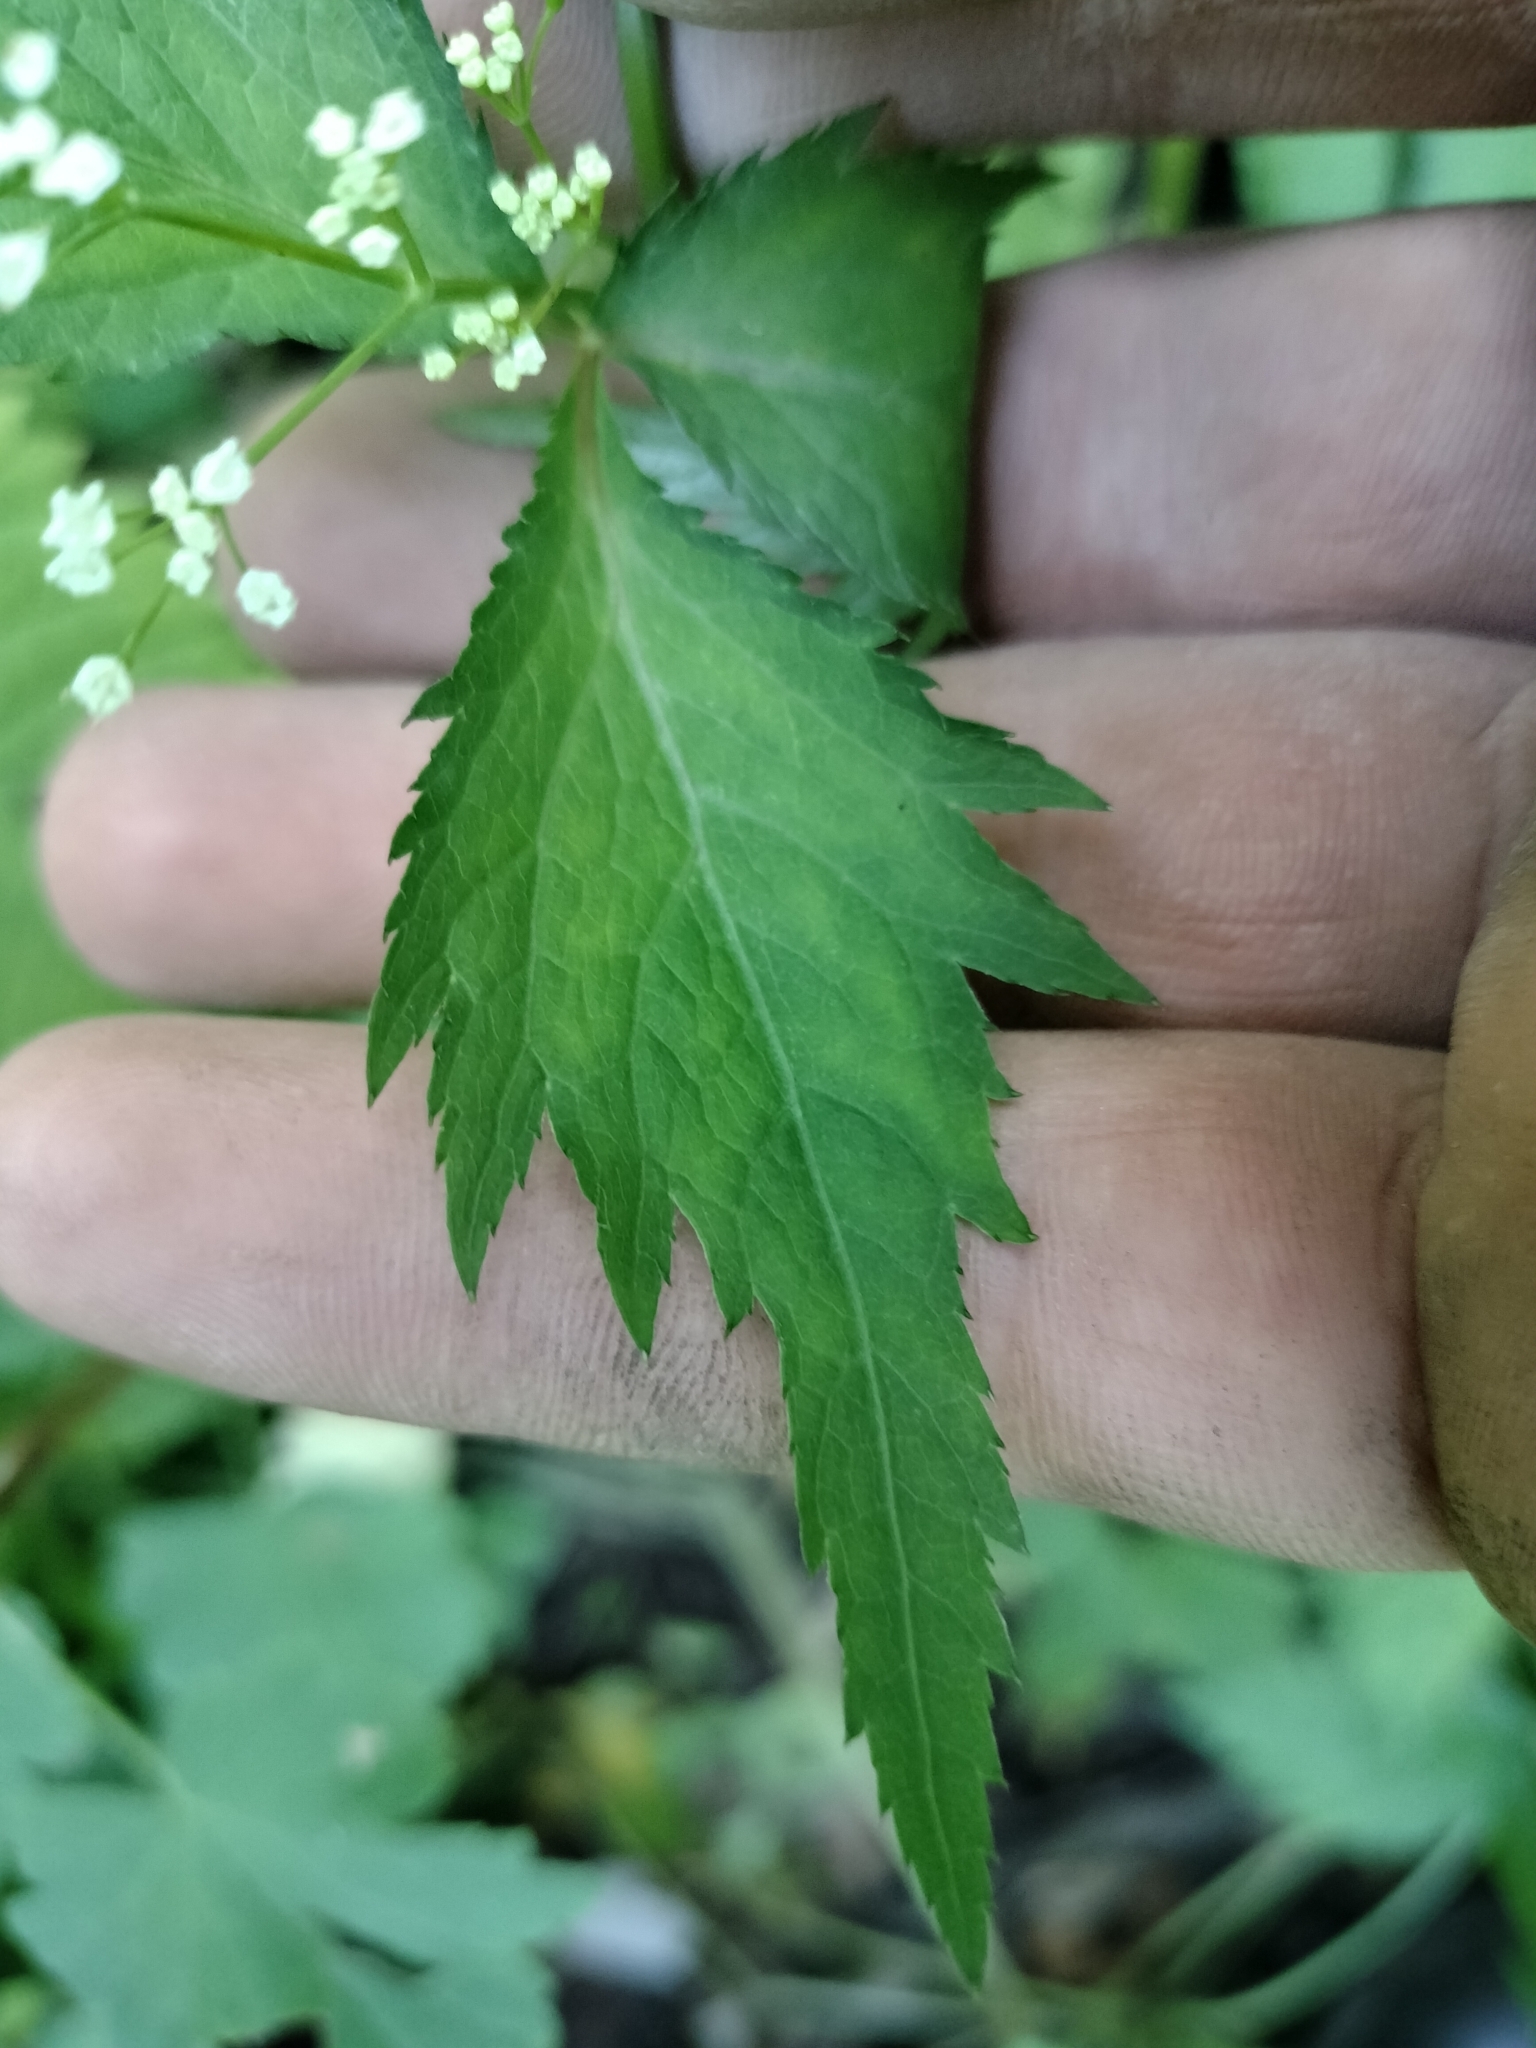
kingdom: Plantae
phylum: Tracheophyta
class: Magnoliopsida
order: Apiales
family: Apiaceae
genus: Cryptotaenia
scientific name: Cryptotaenia canadensis
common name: Honewort
